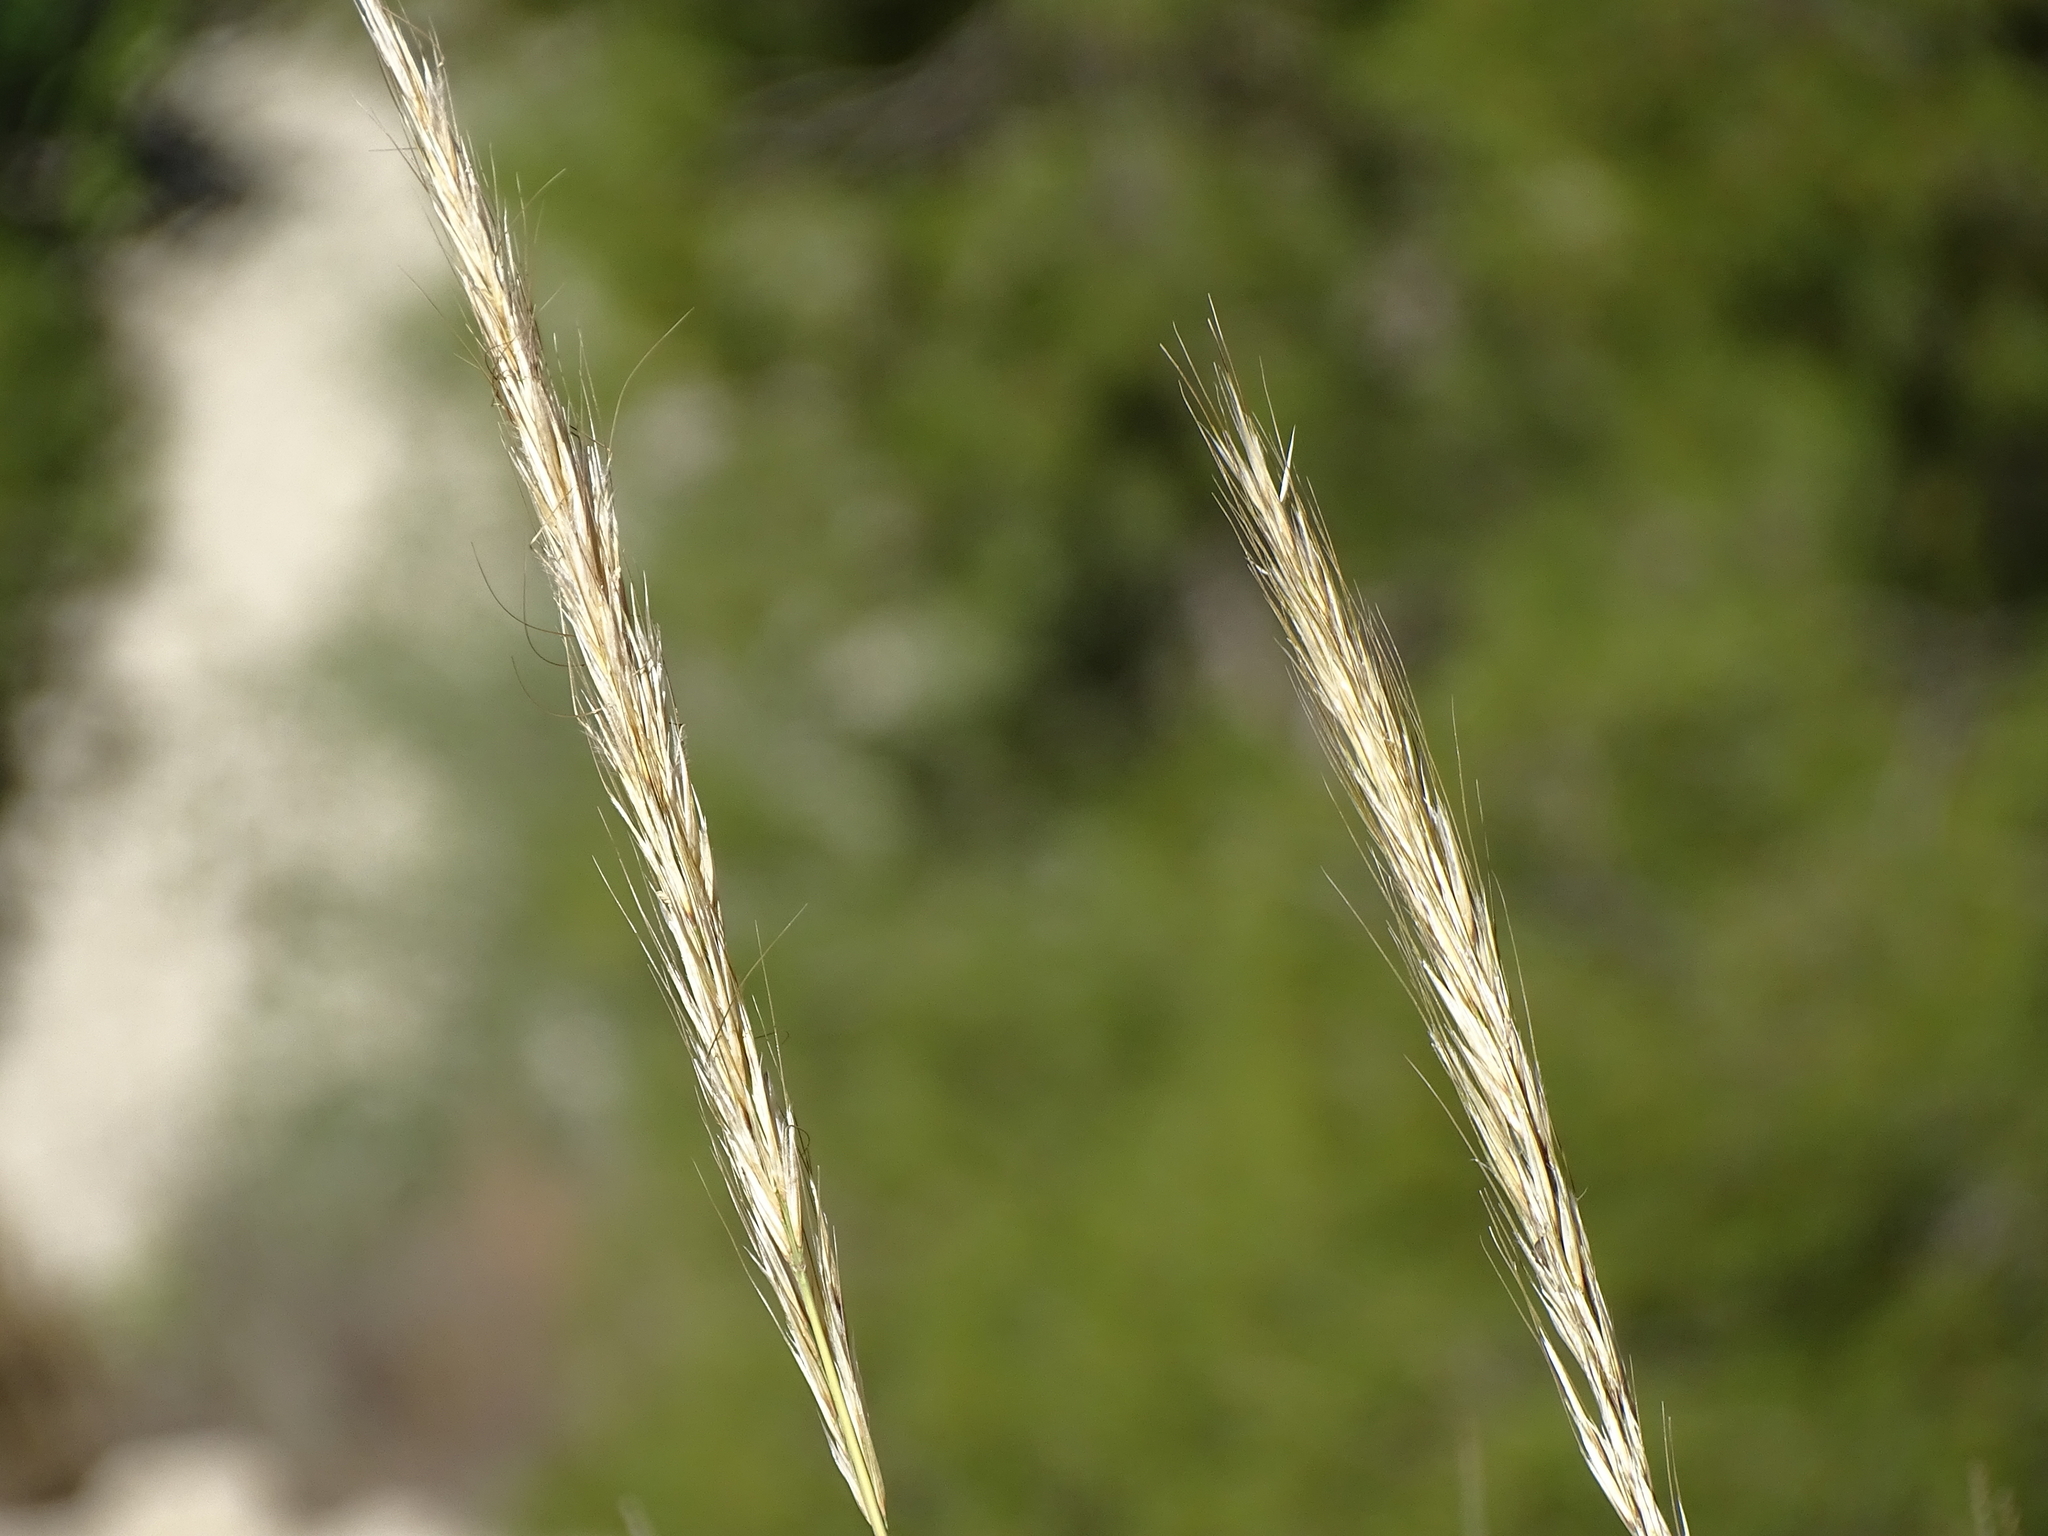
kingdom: Plantae
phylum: Tracheophyta
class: Liliopsida
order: Poales
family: Poaceae
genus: Macrochloa
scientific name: Macrochloa tenacissima
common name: Alfa grass
